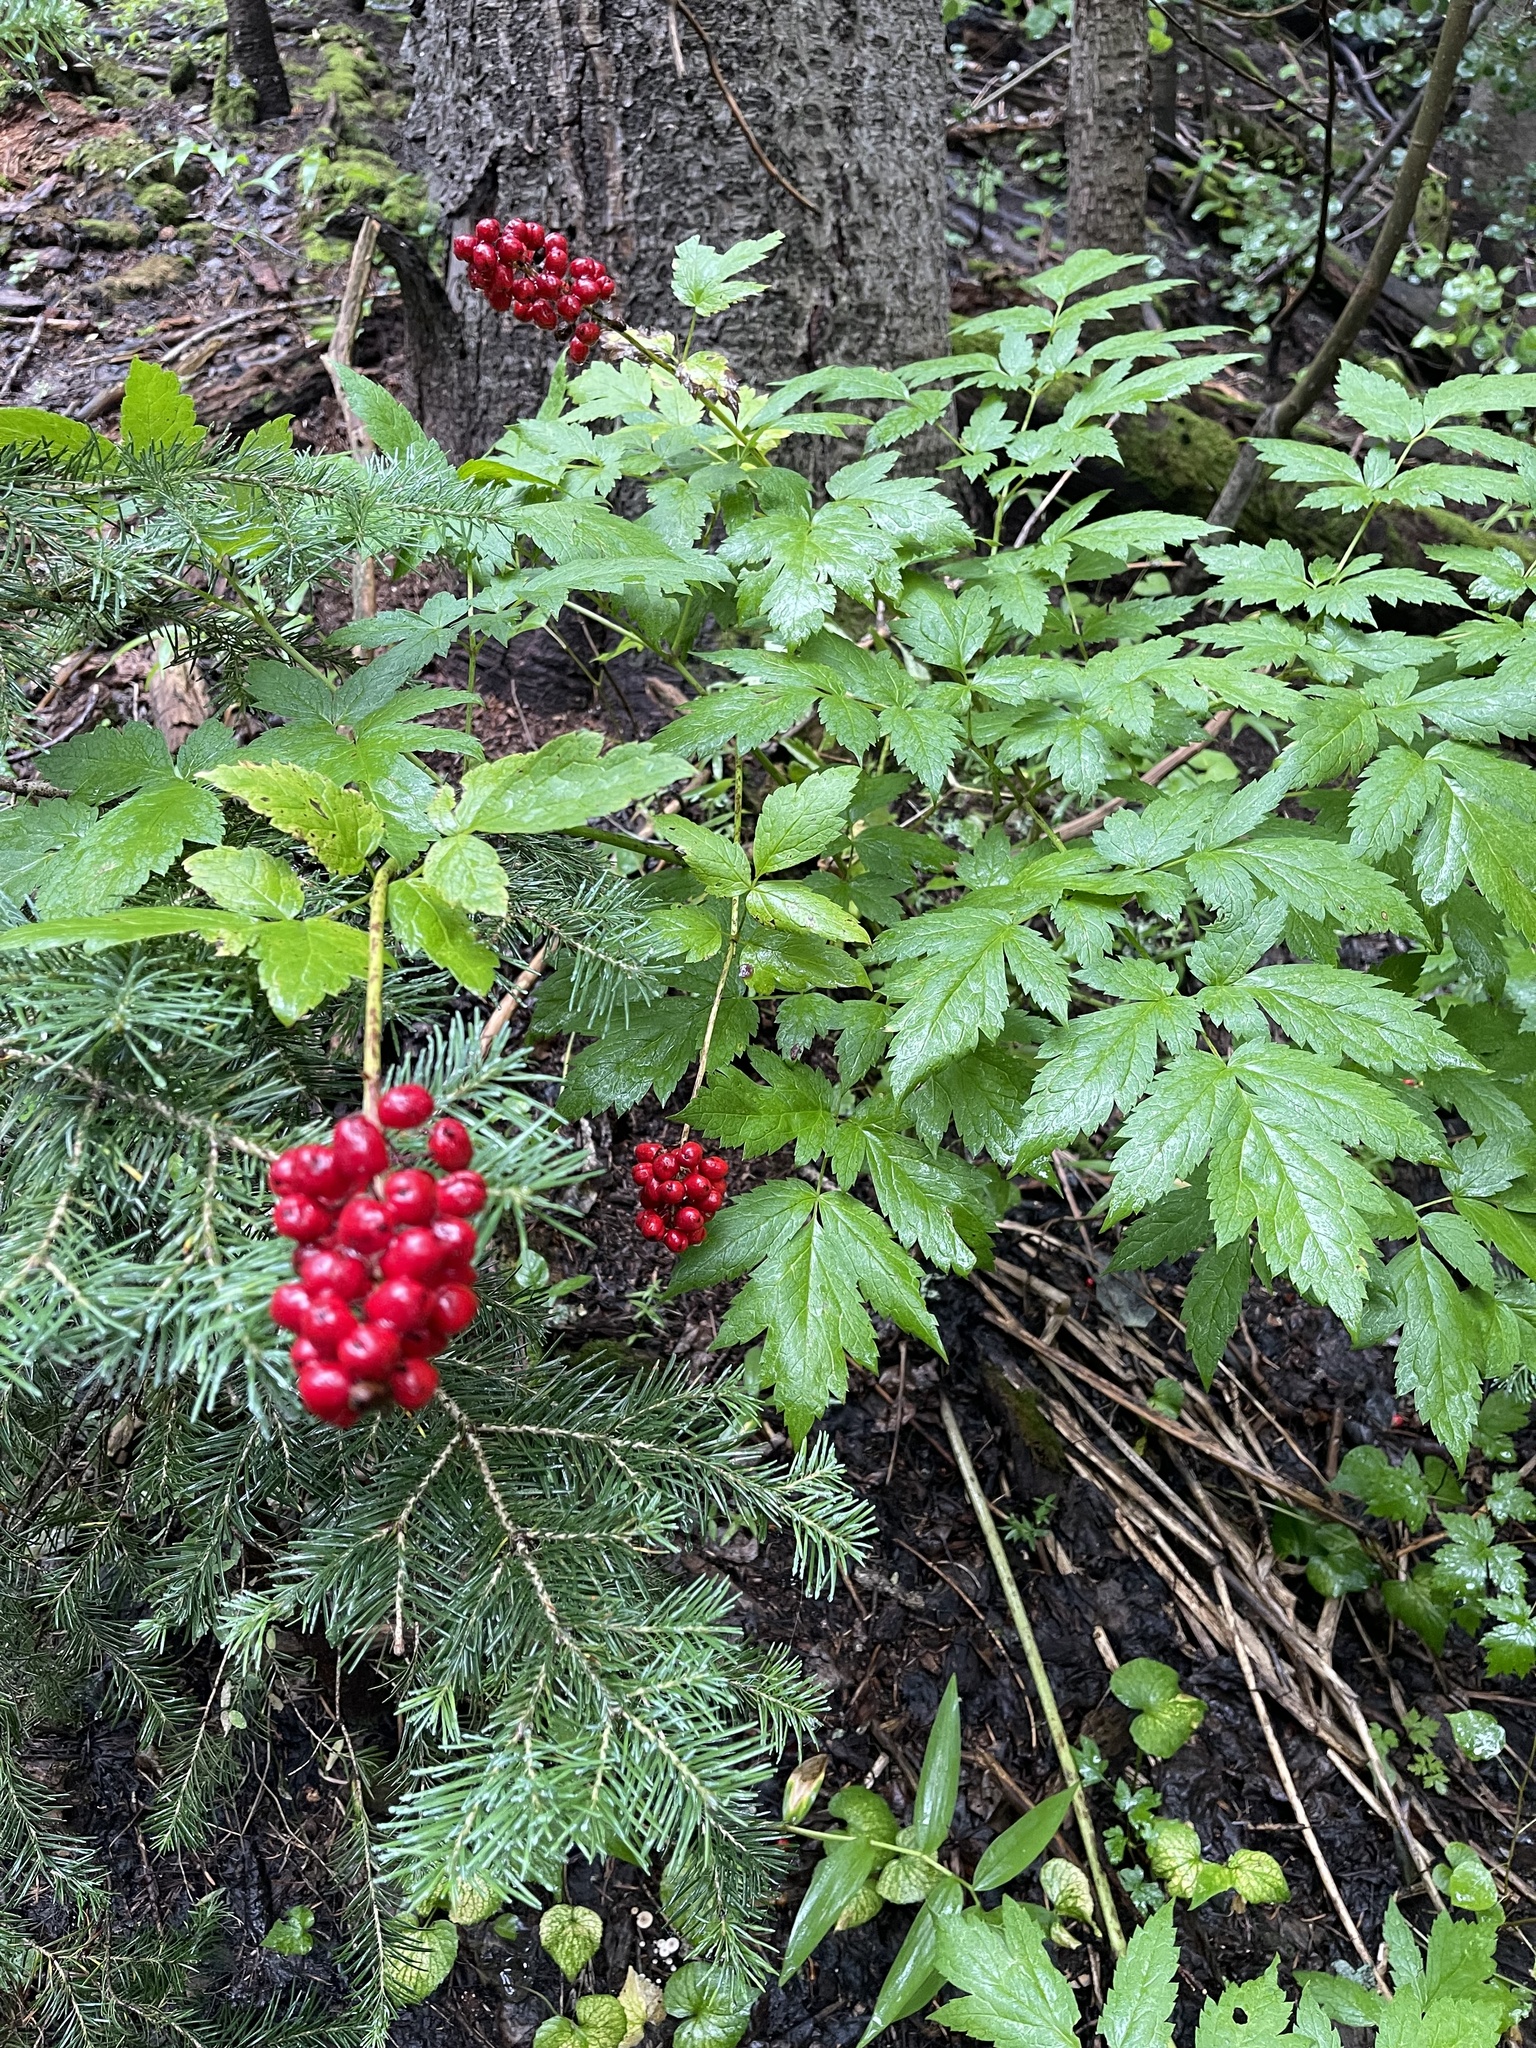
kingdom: Plantae
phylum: Tracheophyta
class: Magnoliopsida
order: Ranunculales
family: Ranunculaceae
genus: Actaea
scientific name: Actaea rubra
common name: Red baneberry
